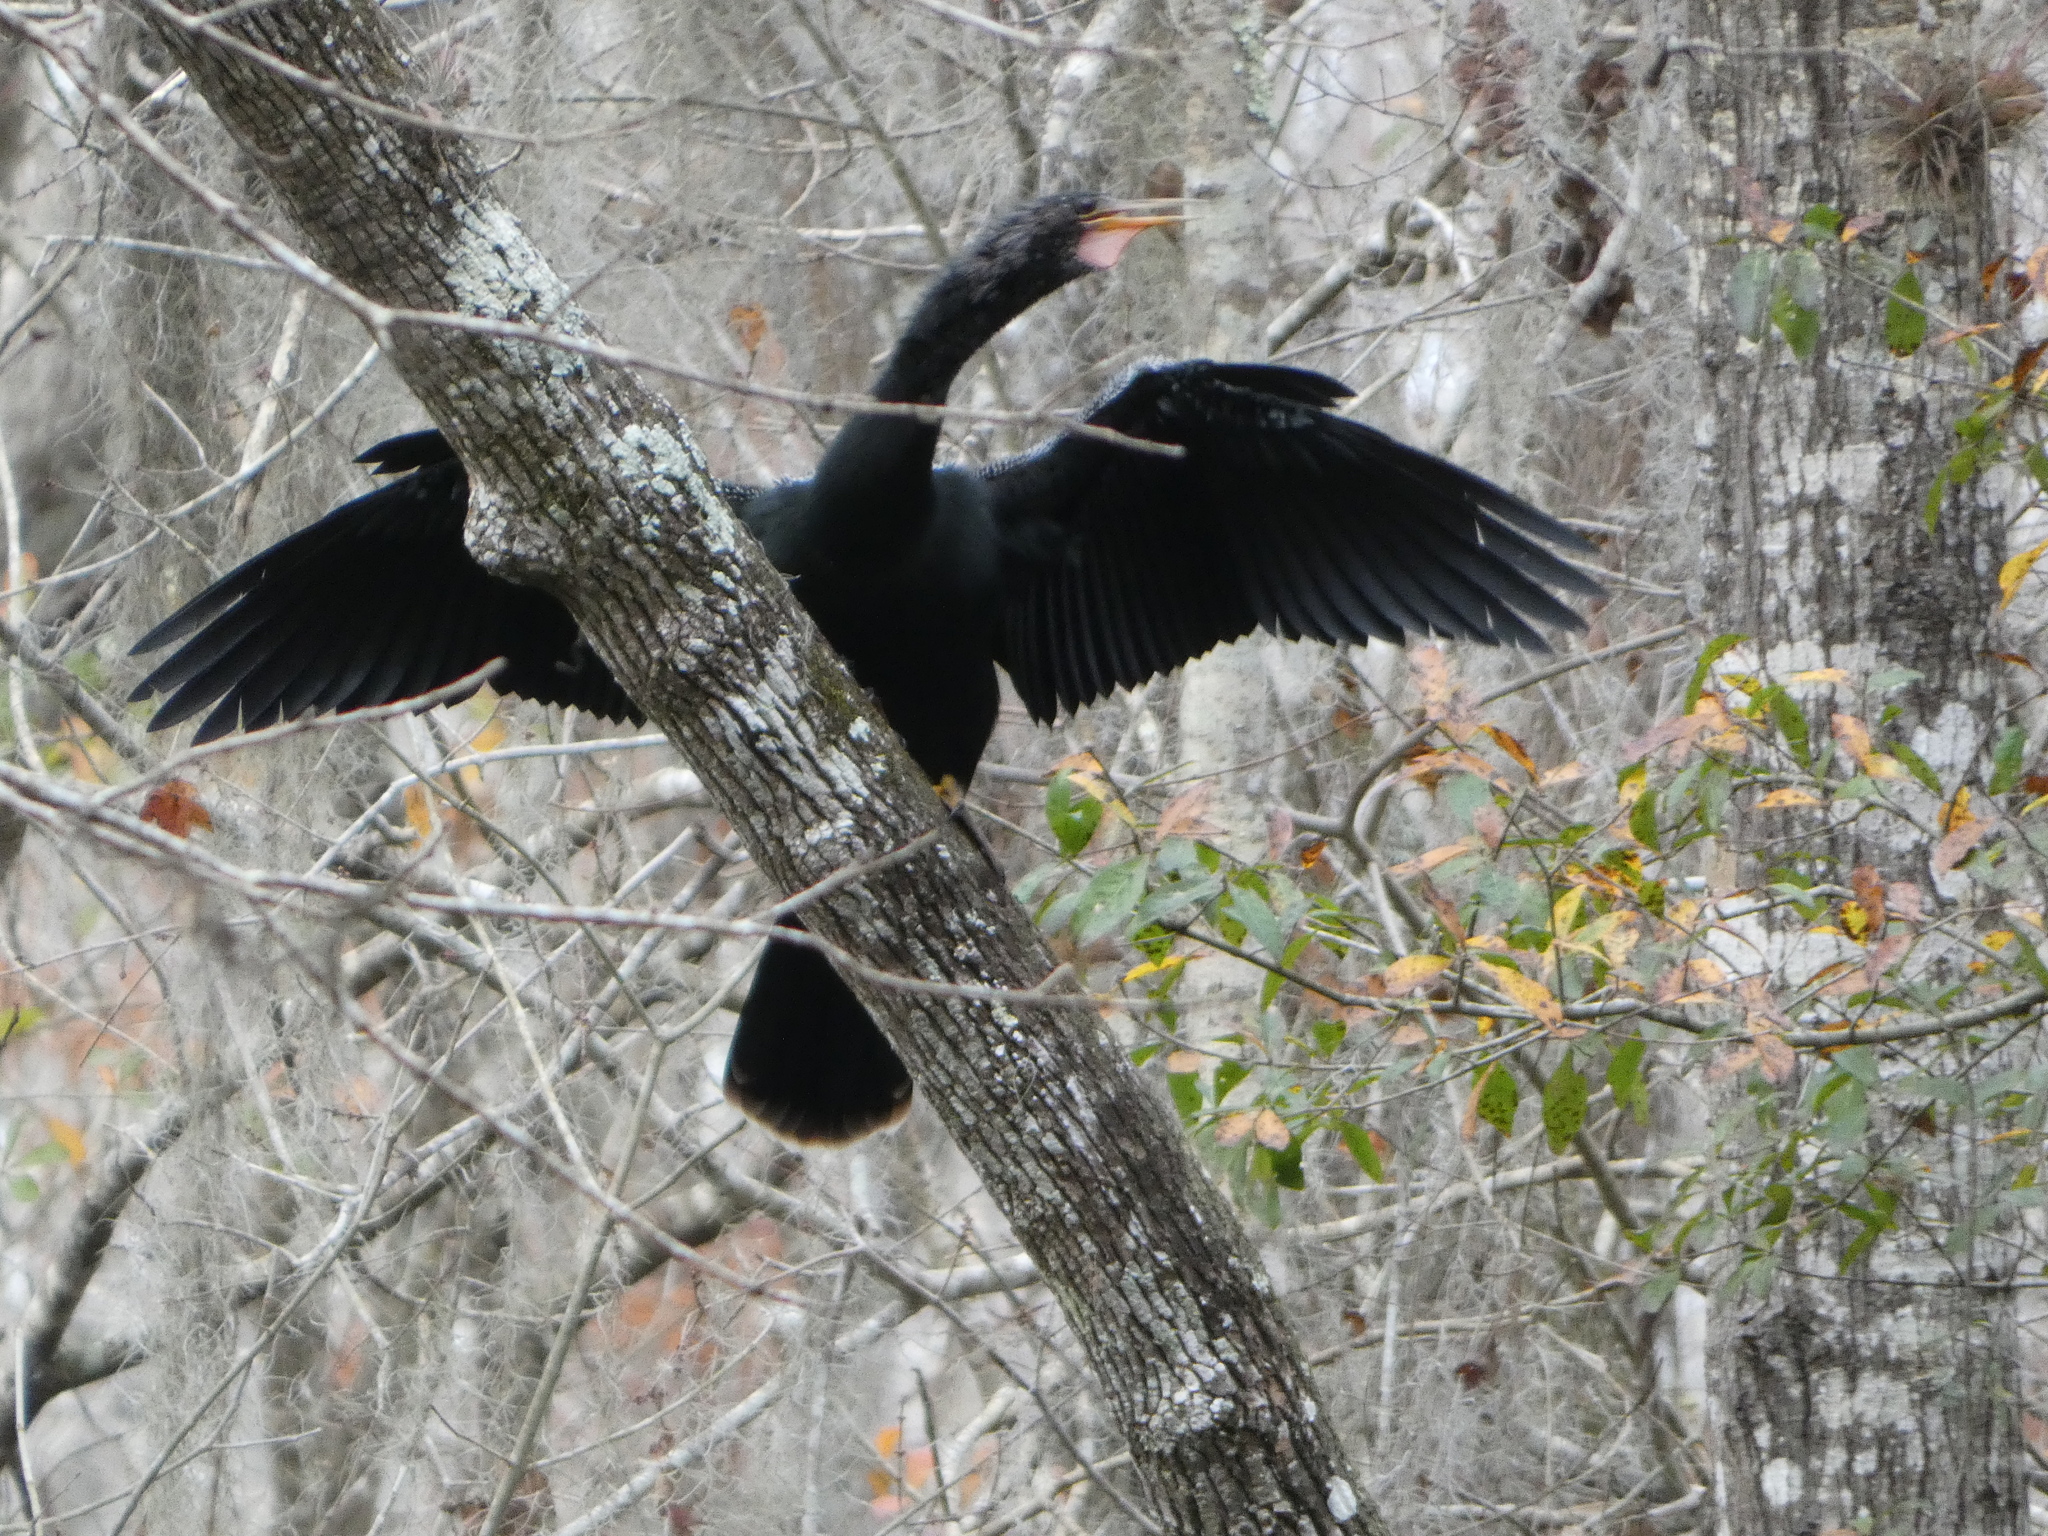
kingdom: Animalia
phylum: Chordata
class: Aves
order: Suliformes
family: Anhingidae
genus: Anhinga
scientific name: Anhinga anhinga
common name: Anhinga
